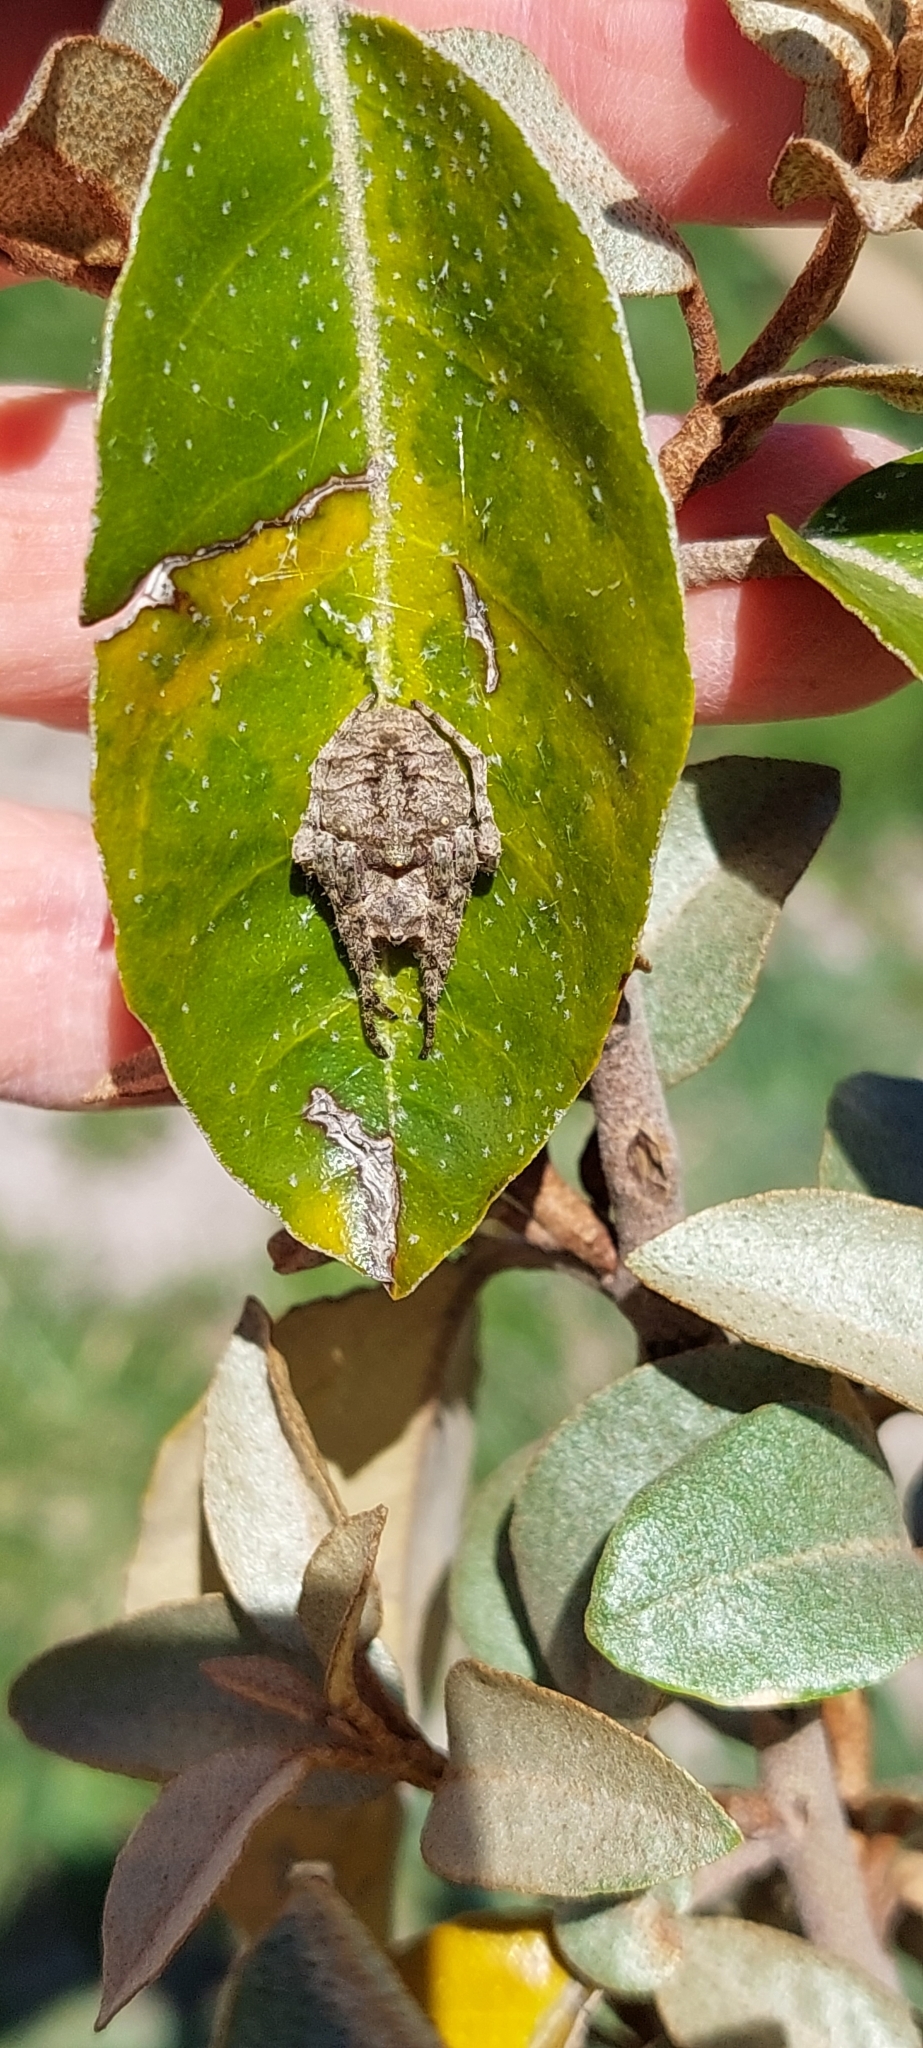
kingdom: Animalia
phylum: Arthropoda
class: Arachnida
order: Araneae
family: Araneidae
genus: Parawixia
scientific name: Parawixia audax
